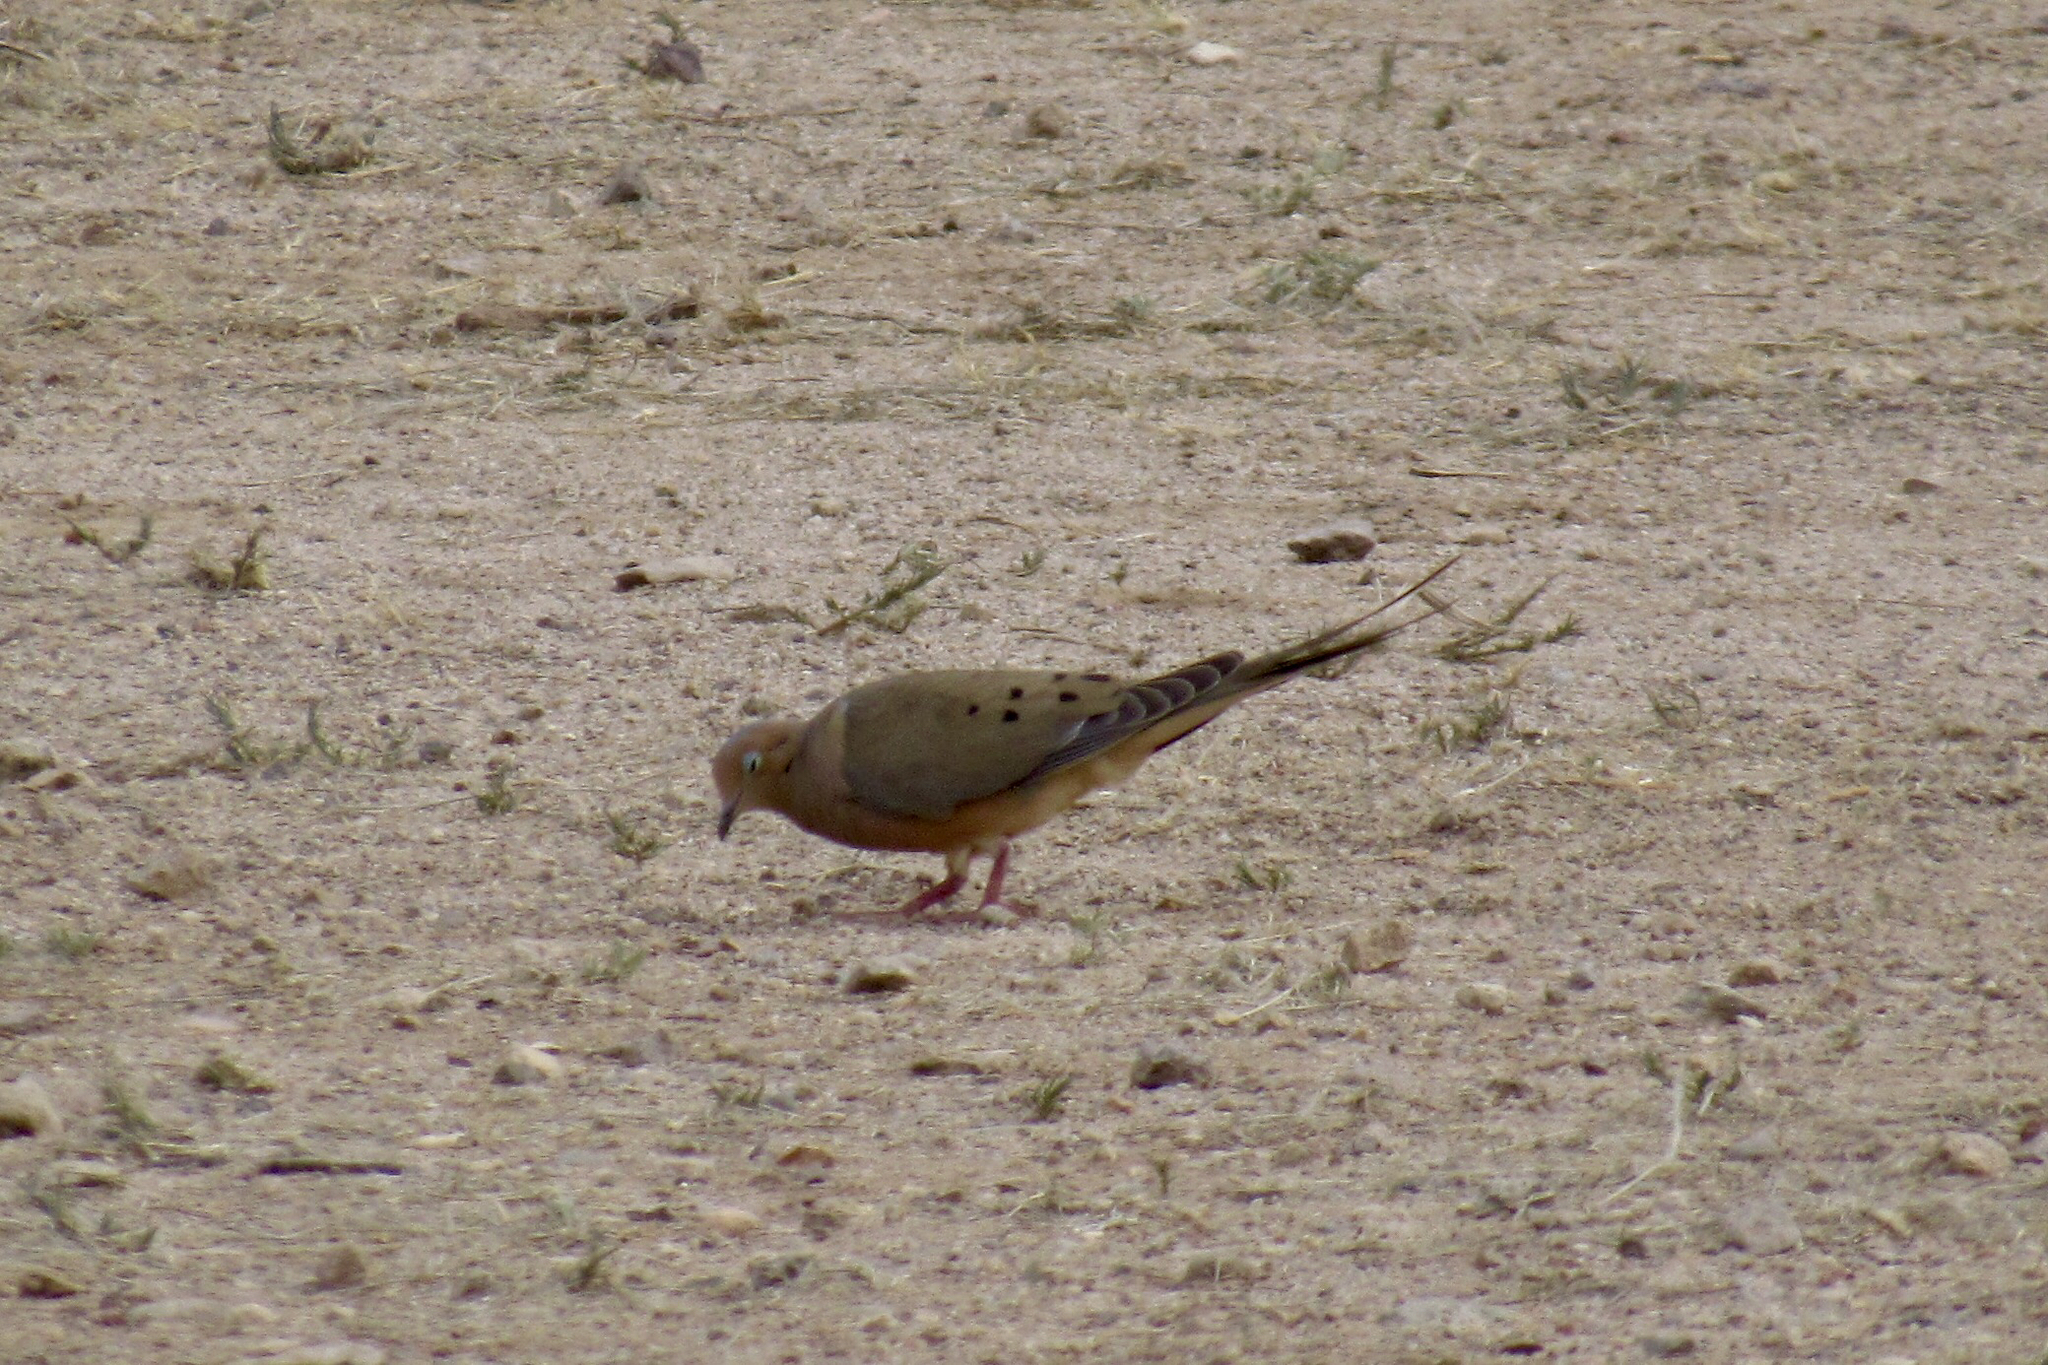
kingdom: Animalia
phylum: Chordata
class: Aves
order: Columbiformes
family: Columbidae
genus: Zenaida
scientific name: Zenaida macroura
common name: Mourning dove
